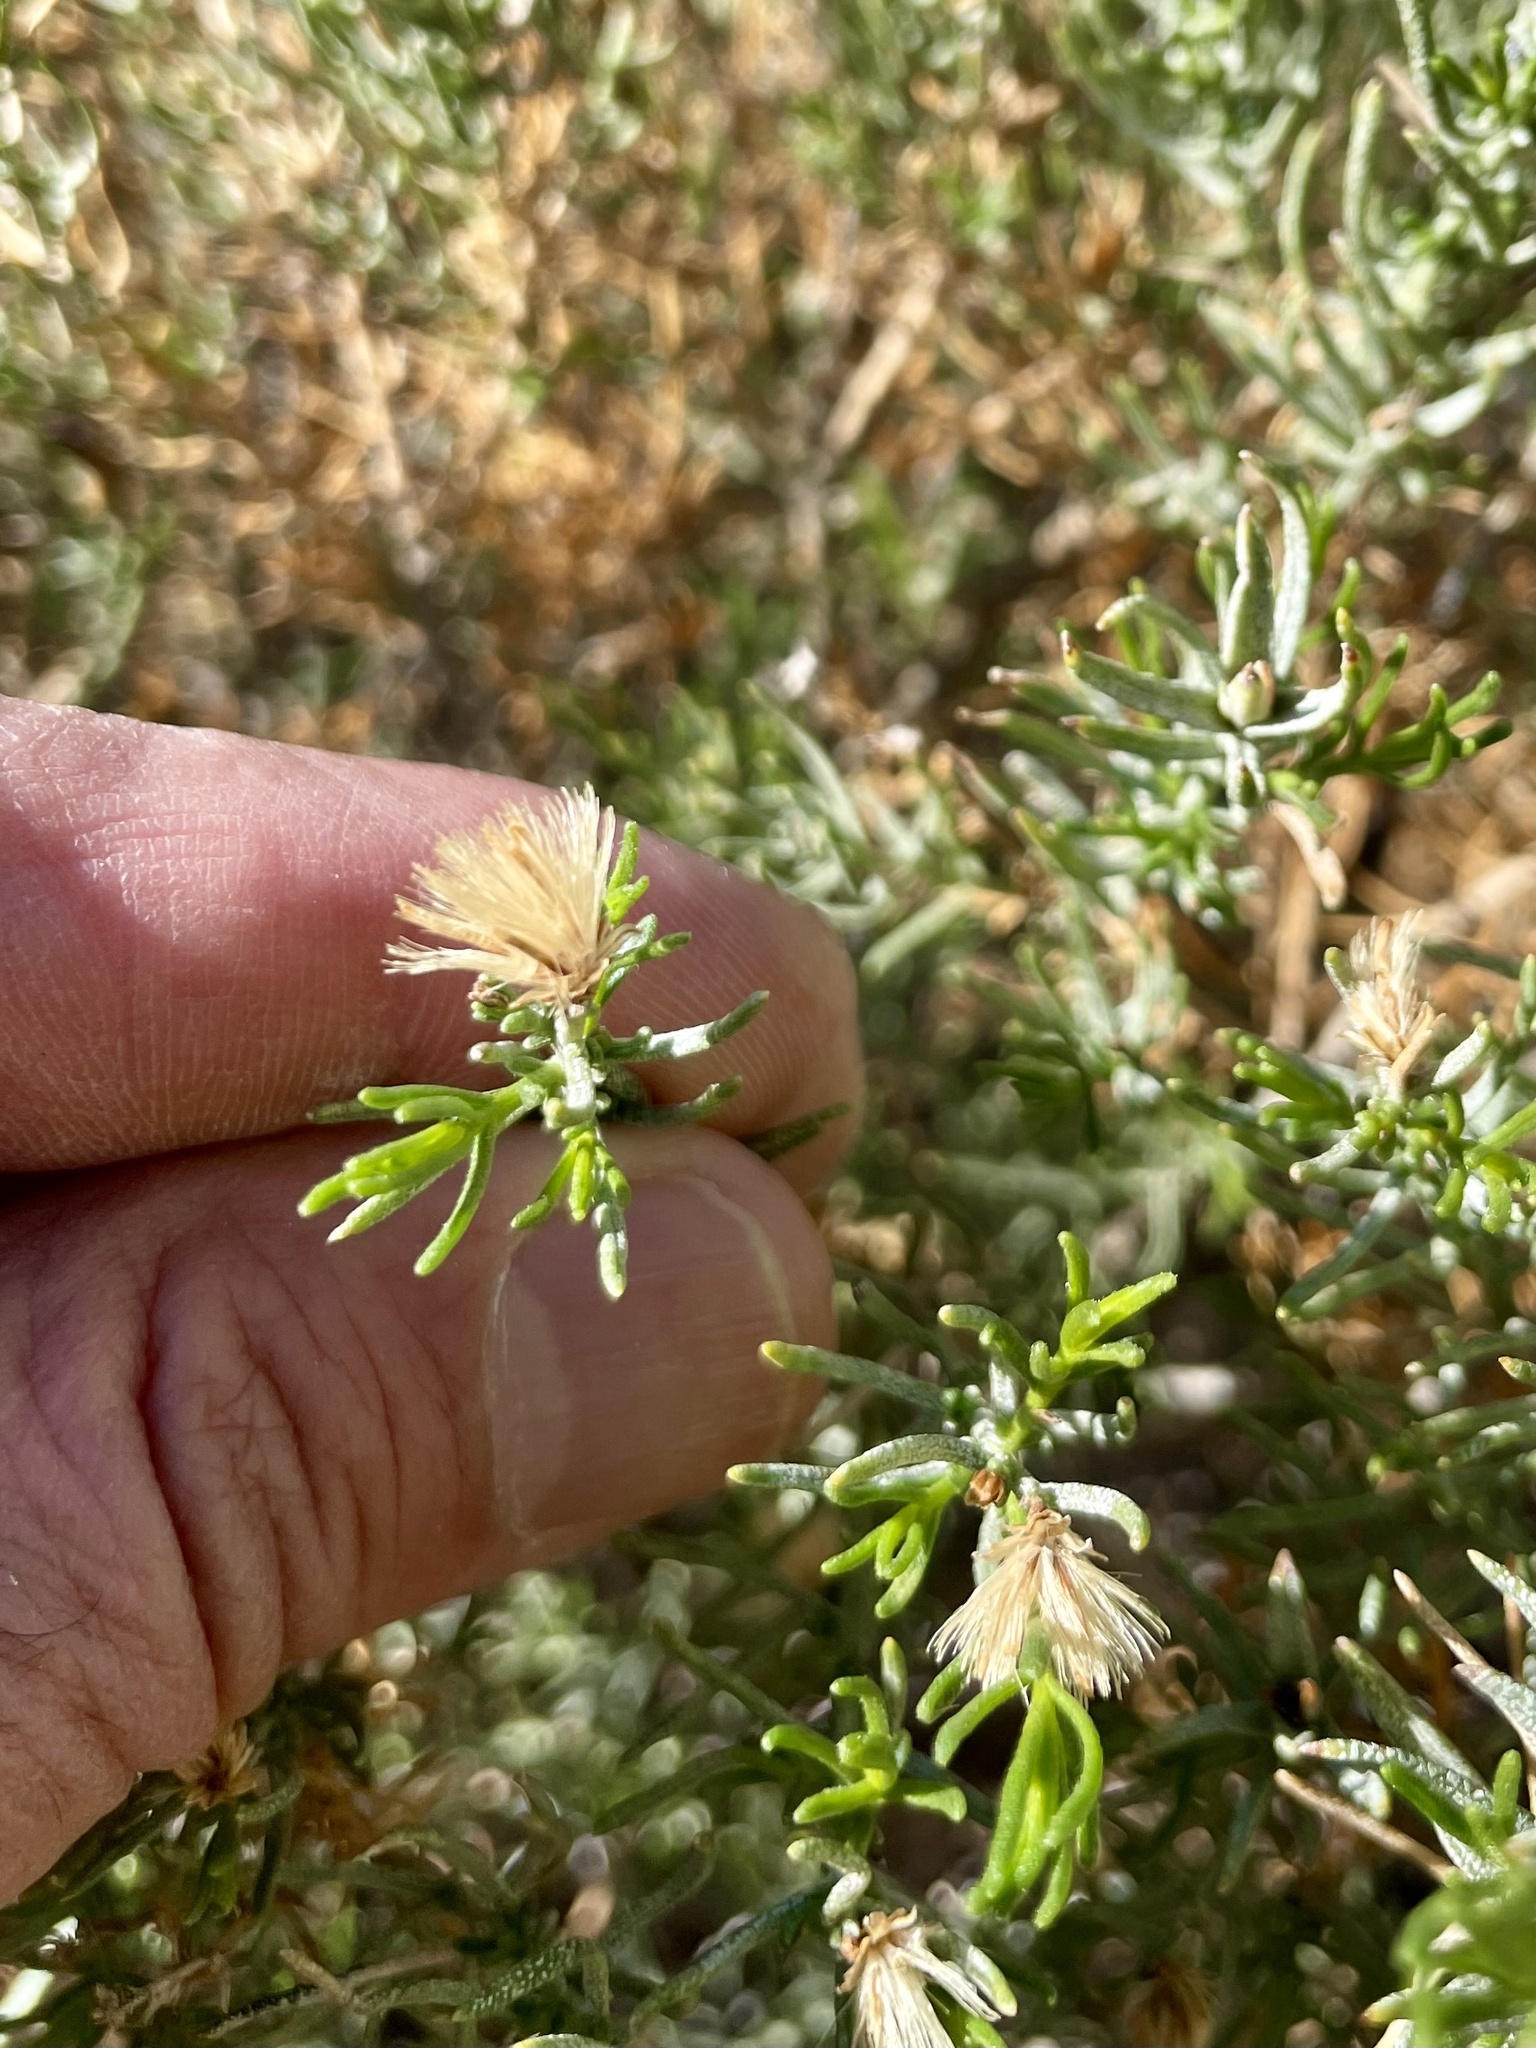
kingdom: Plantae
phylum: Tracheophyta
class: Magnoliopsida
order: Asterales
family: Asteraceae
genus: Ericameria
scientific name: Ericameria laricifolia
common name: Turpentine-bush
